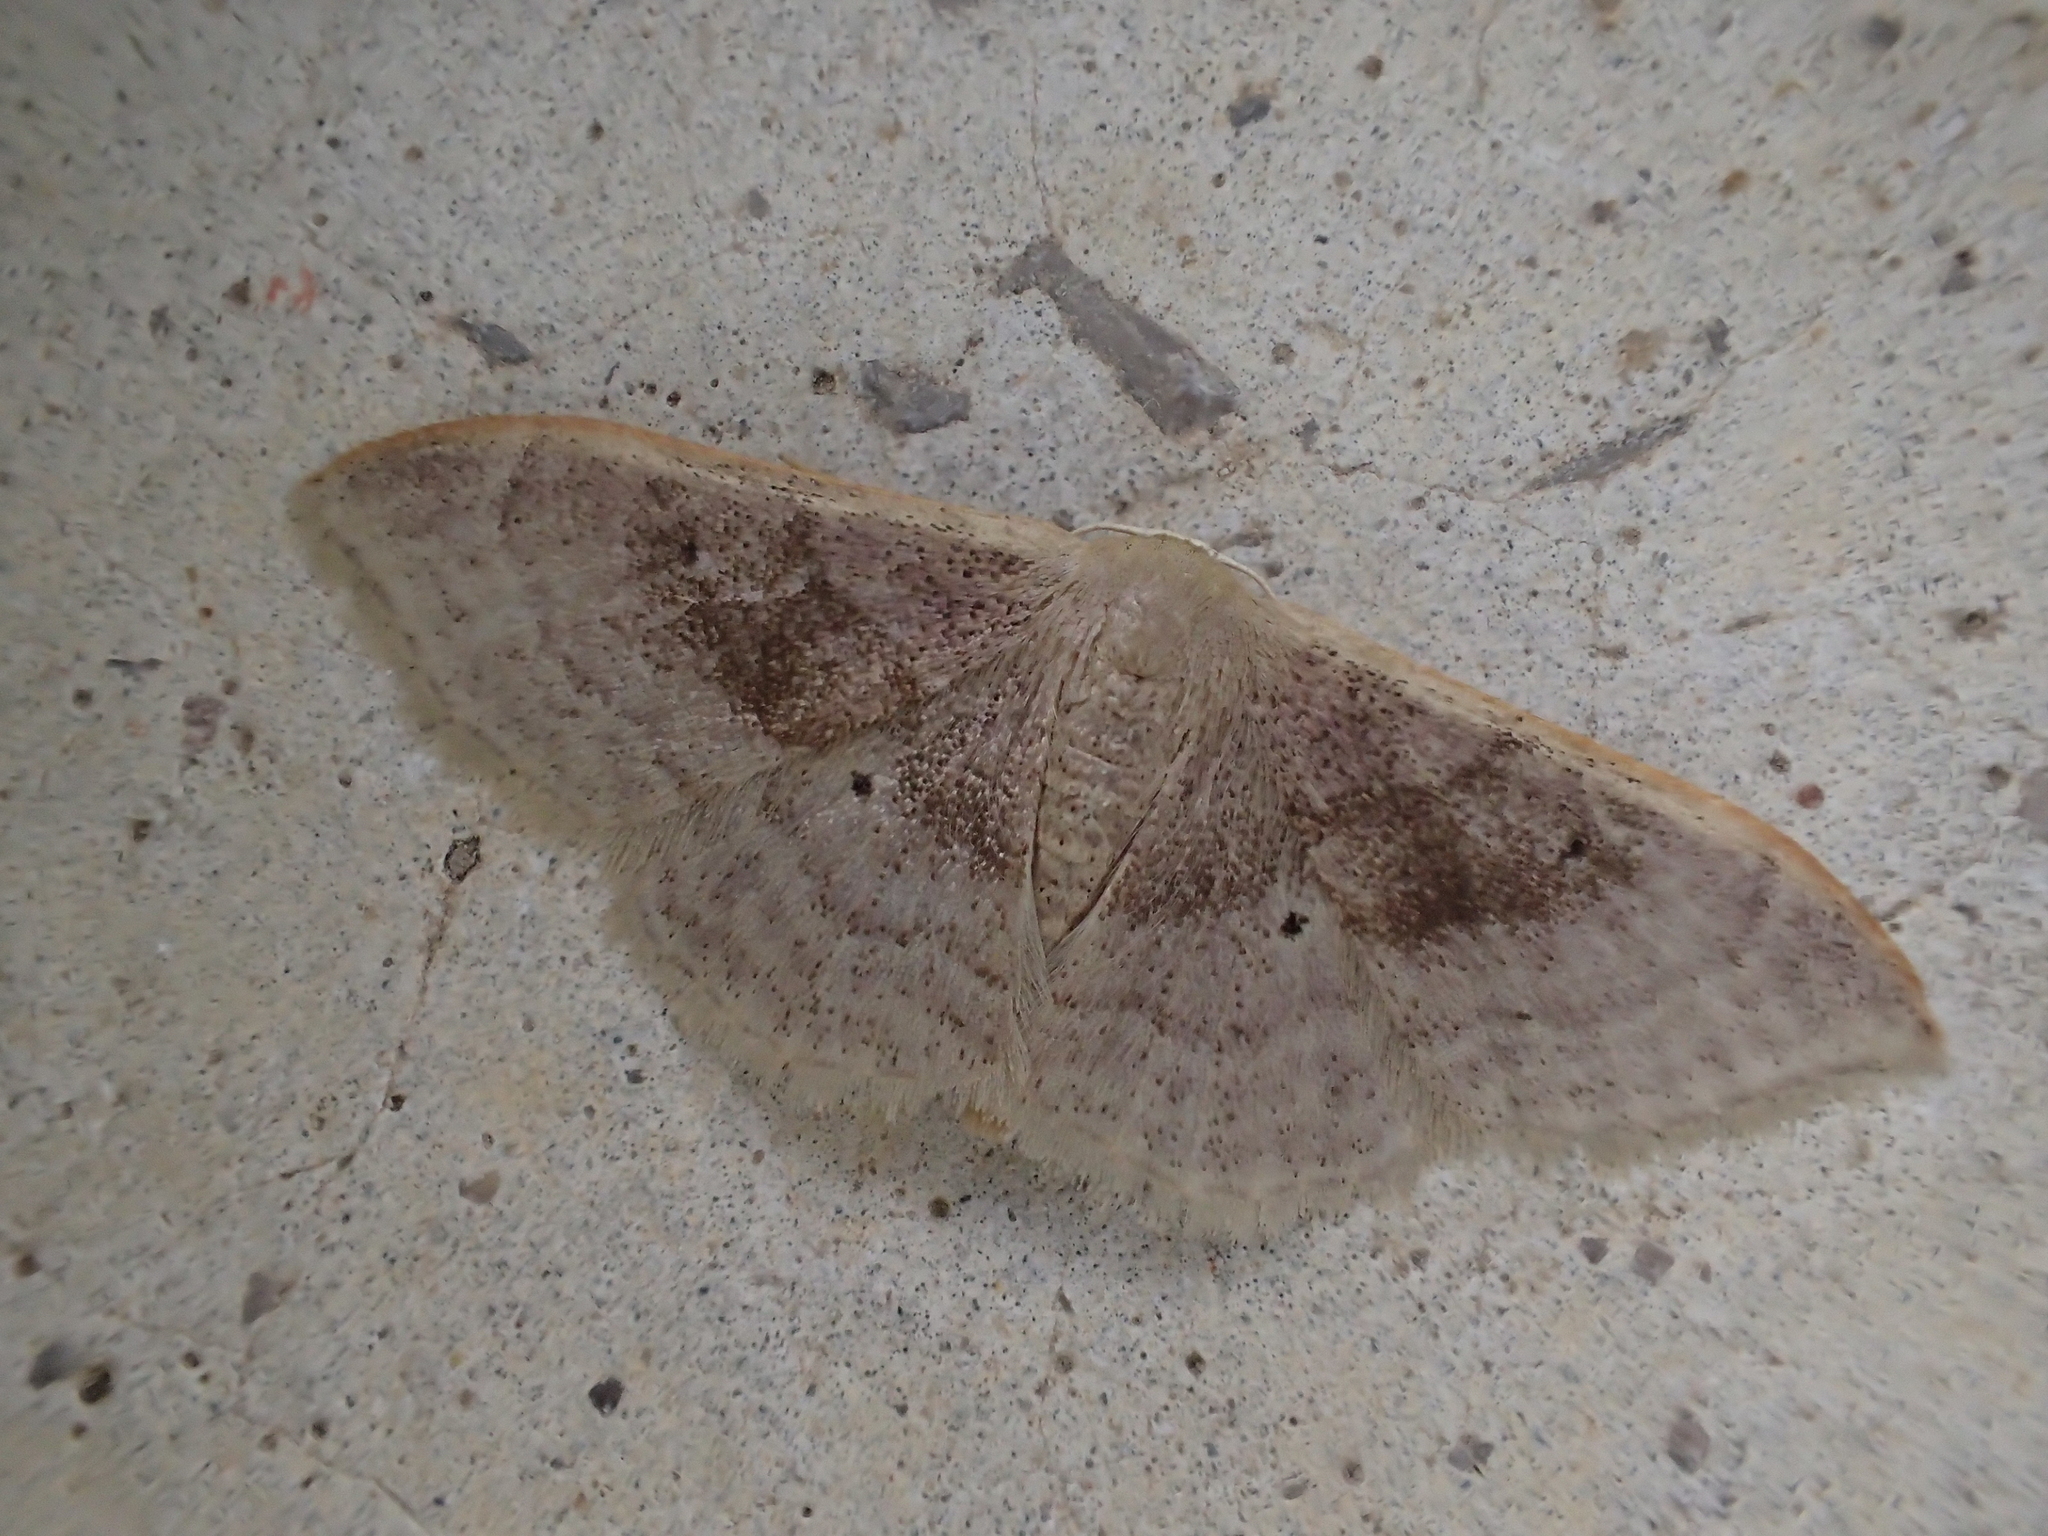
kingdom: Animalia
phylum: Arthropoda
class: Insecta
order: Lepidoptera
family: Geometridae
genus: Idaea
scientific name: Idaea degeneraria
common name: Portland ribbon wave
